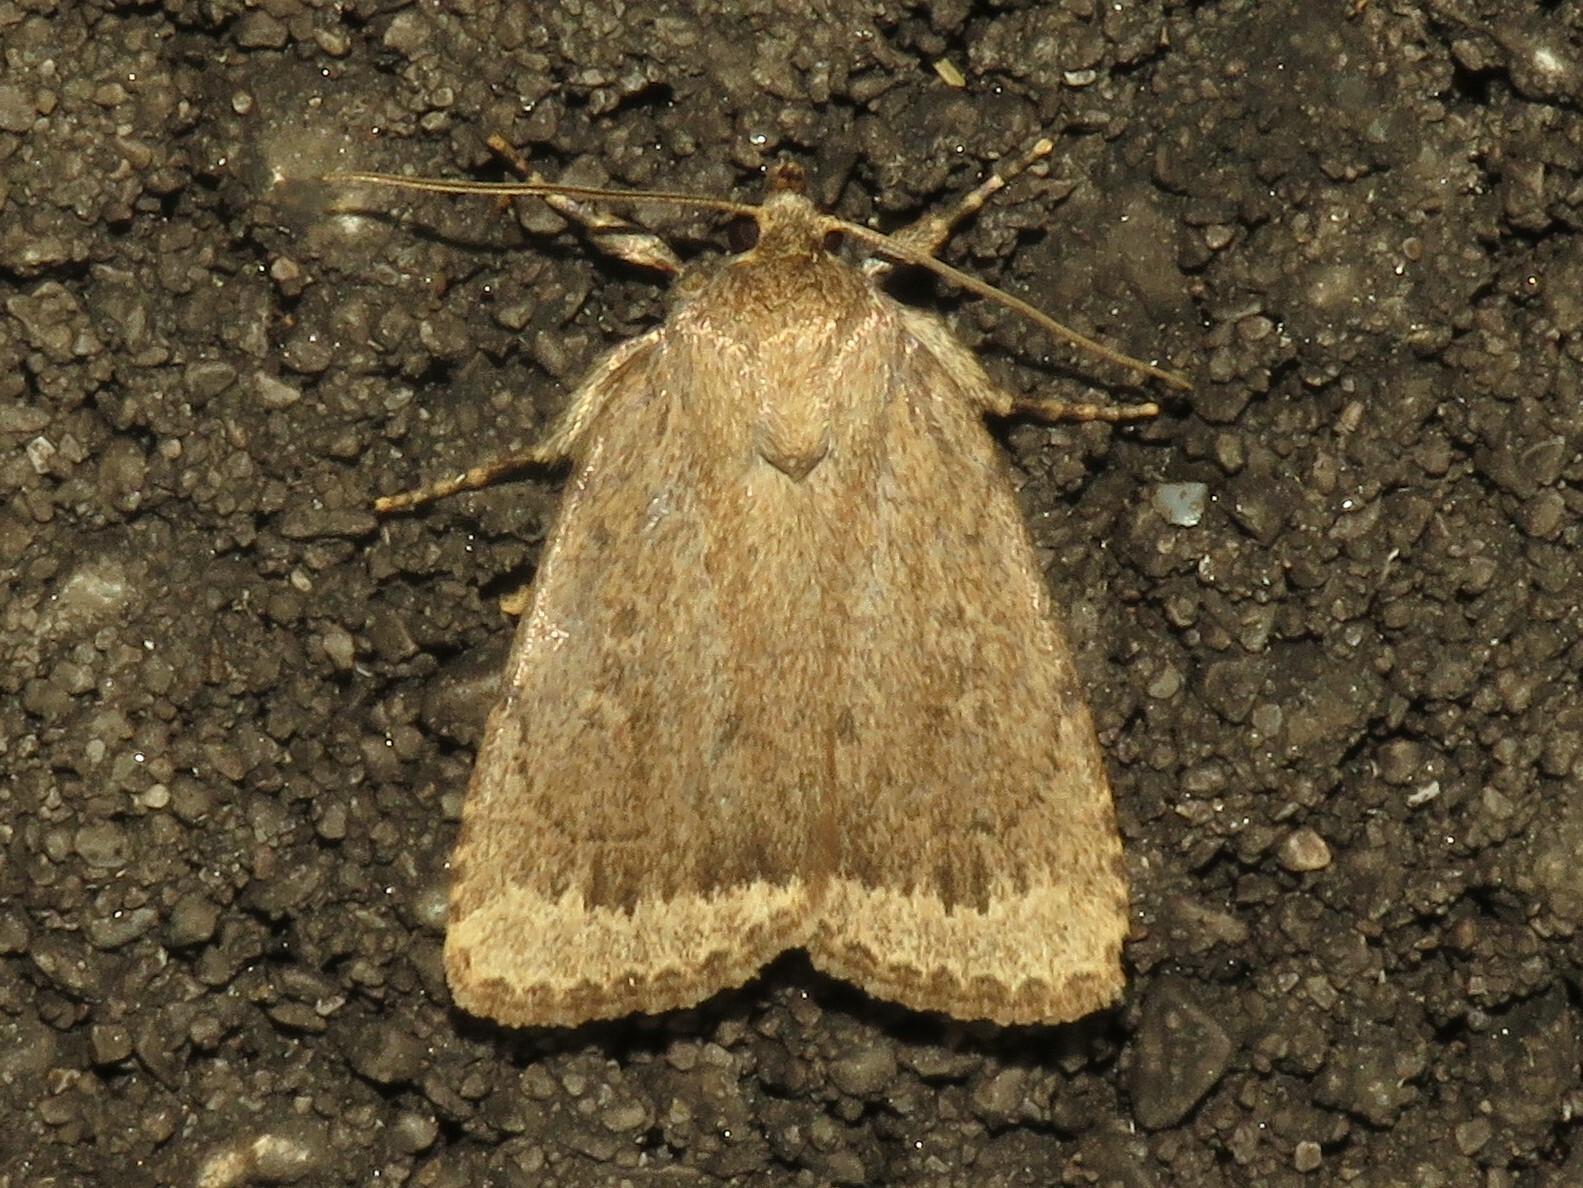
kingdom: Animalia
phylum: Arthropoda
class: Insecta
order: Lepidoptera
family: Noctuidae
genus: Amphipyra
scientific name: Amphipyra glabella
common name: Smooth amphipyra moth
